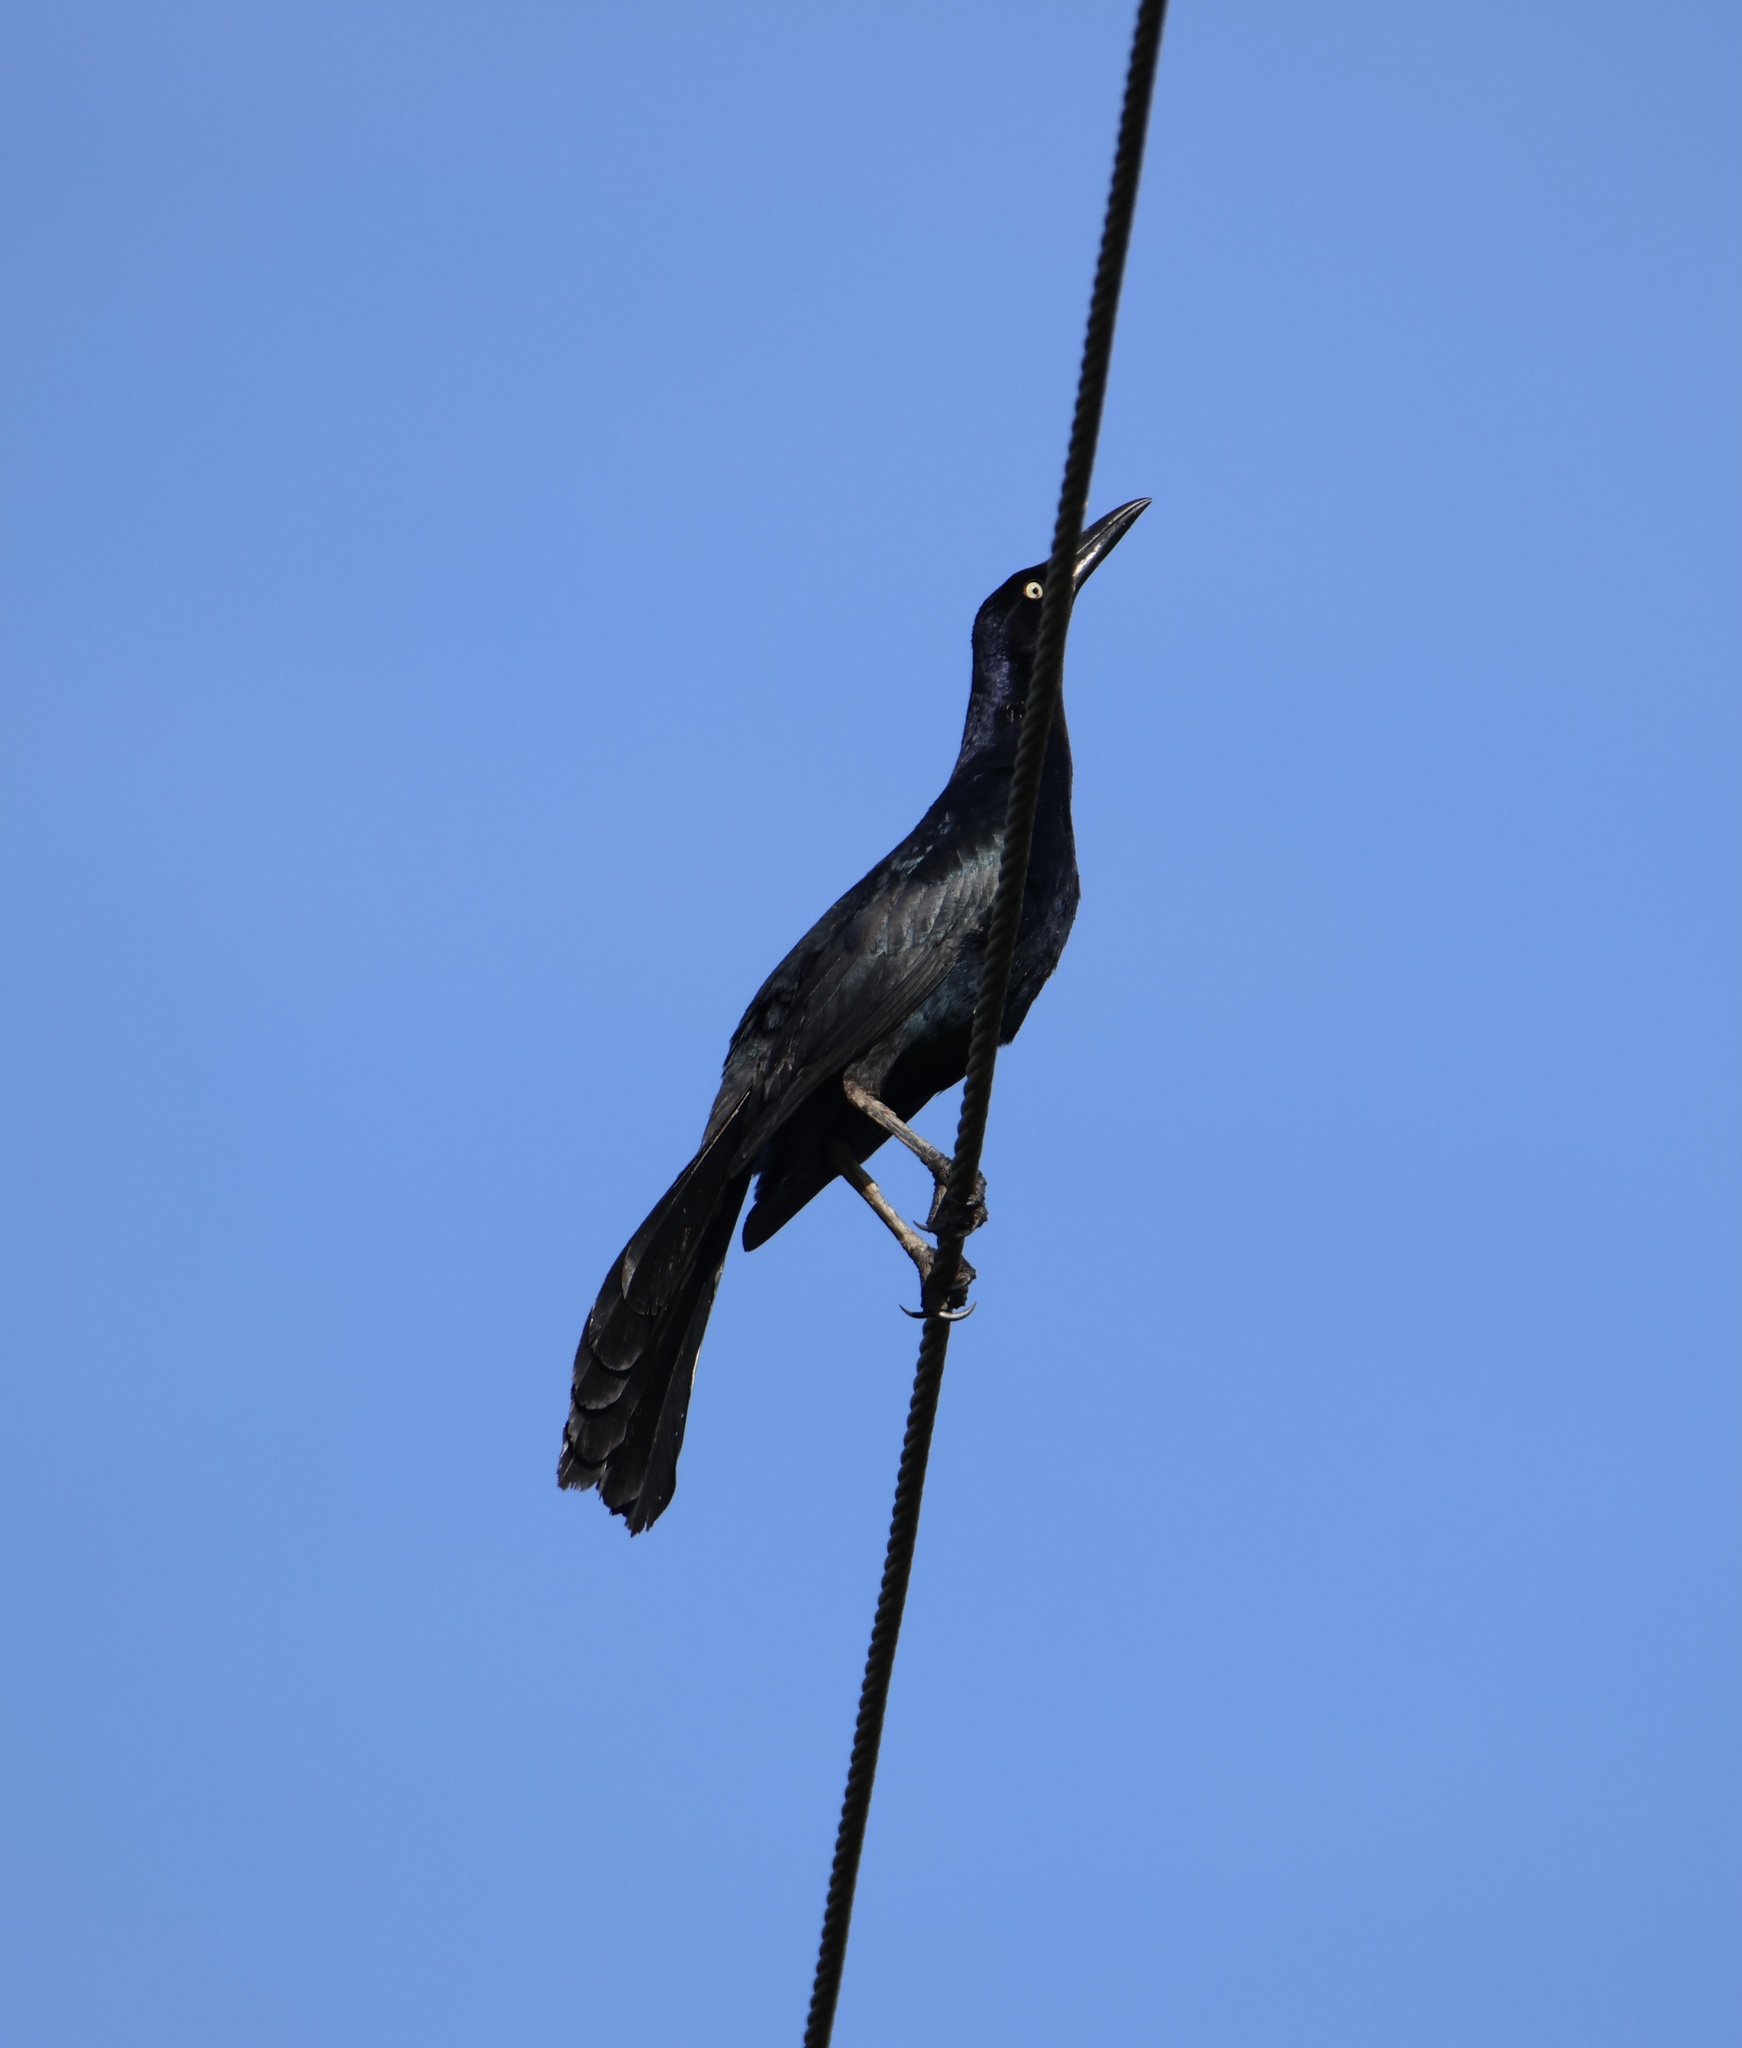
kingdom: Animalia
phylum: Chordata
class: Aves
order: Passeriformes
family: Icteridae
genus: Quiscalus
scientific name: Quiscalus mexicanus
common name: Great-tailed grackle
